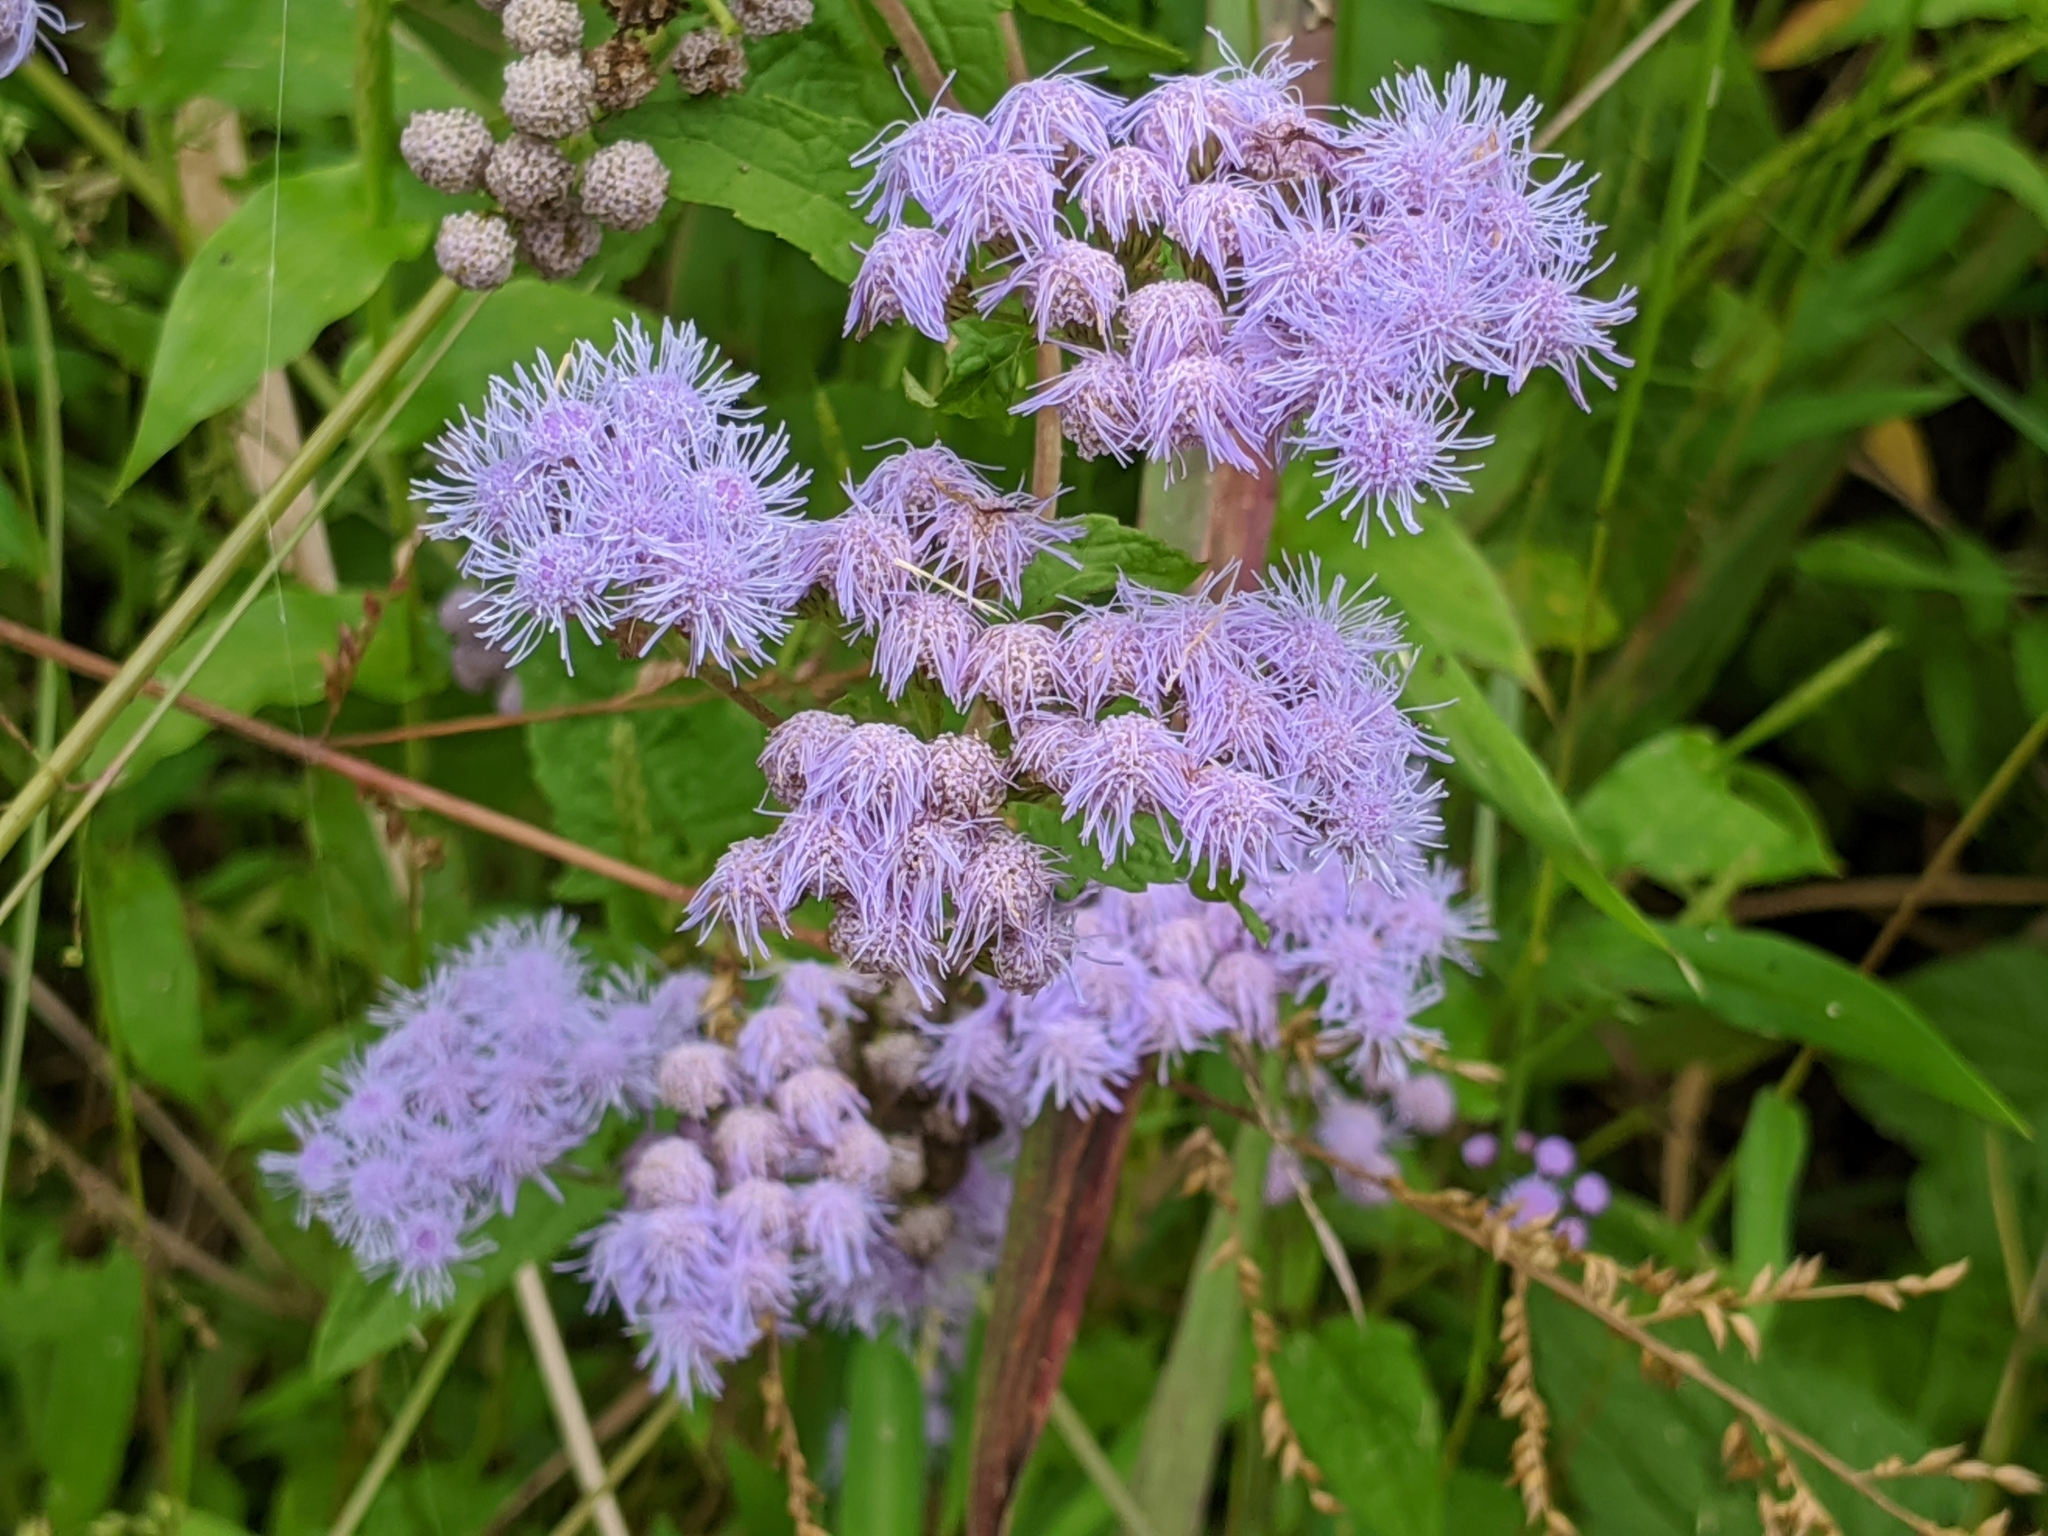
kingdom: Plantae
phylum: Tracheophyta
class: Magnoliopsida
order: Asterales
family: Asteraceae
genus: Conoclinium
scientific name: Conoclinium coelestinum
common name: Blue mistflower
